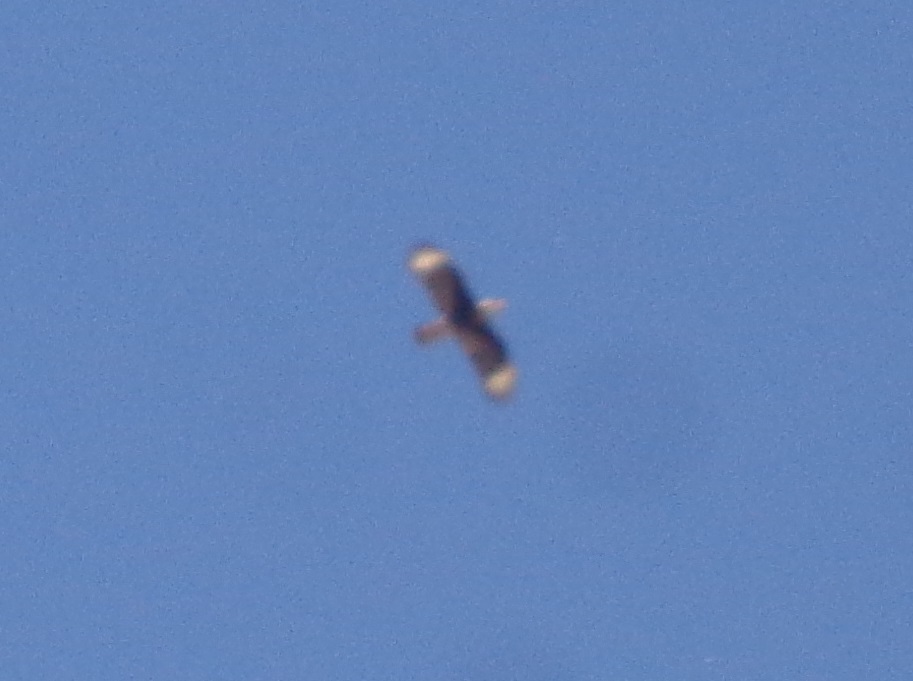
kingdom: Animalia
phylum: Chordata
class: Aves
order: Falconiformes
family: Falconidae
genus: Caracara
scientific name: Caracara plancus
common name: Southern caracara
